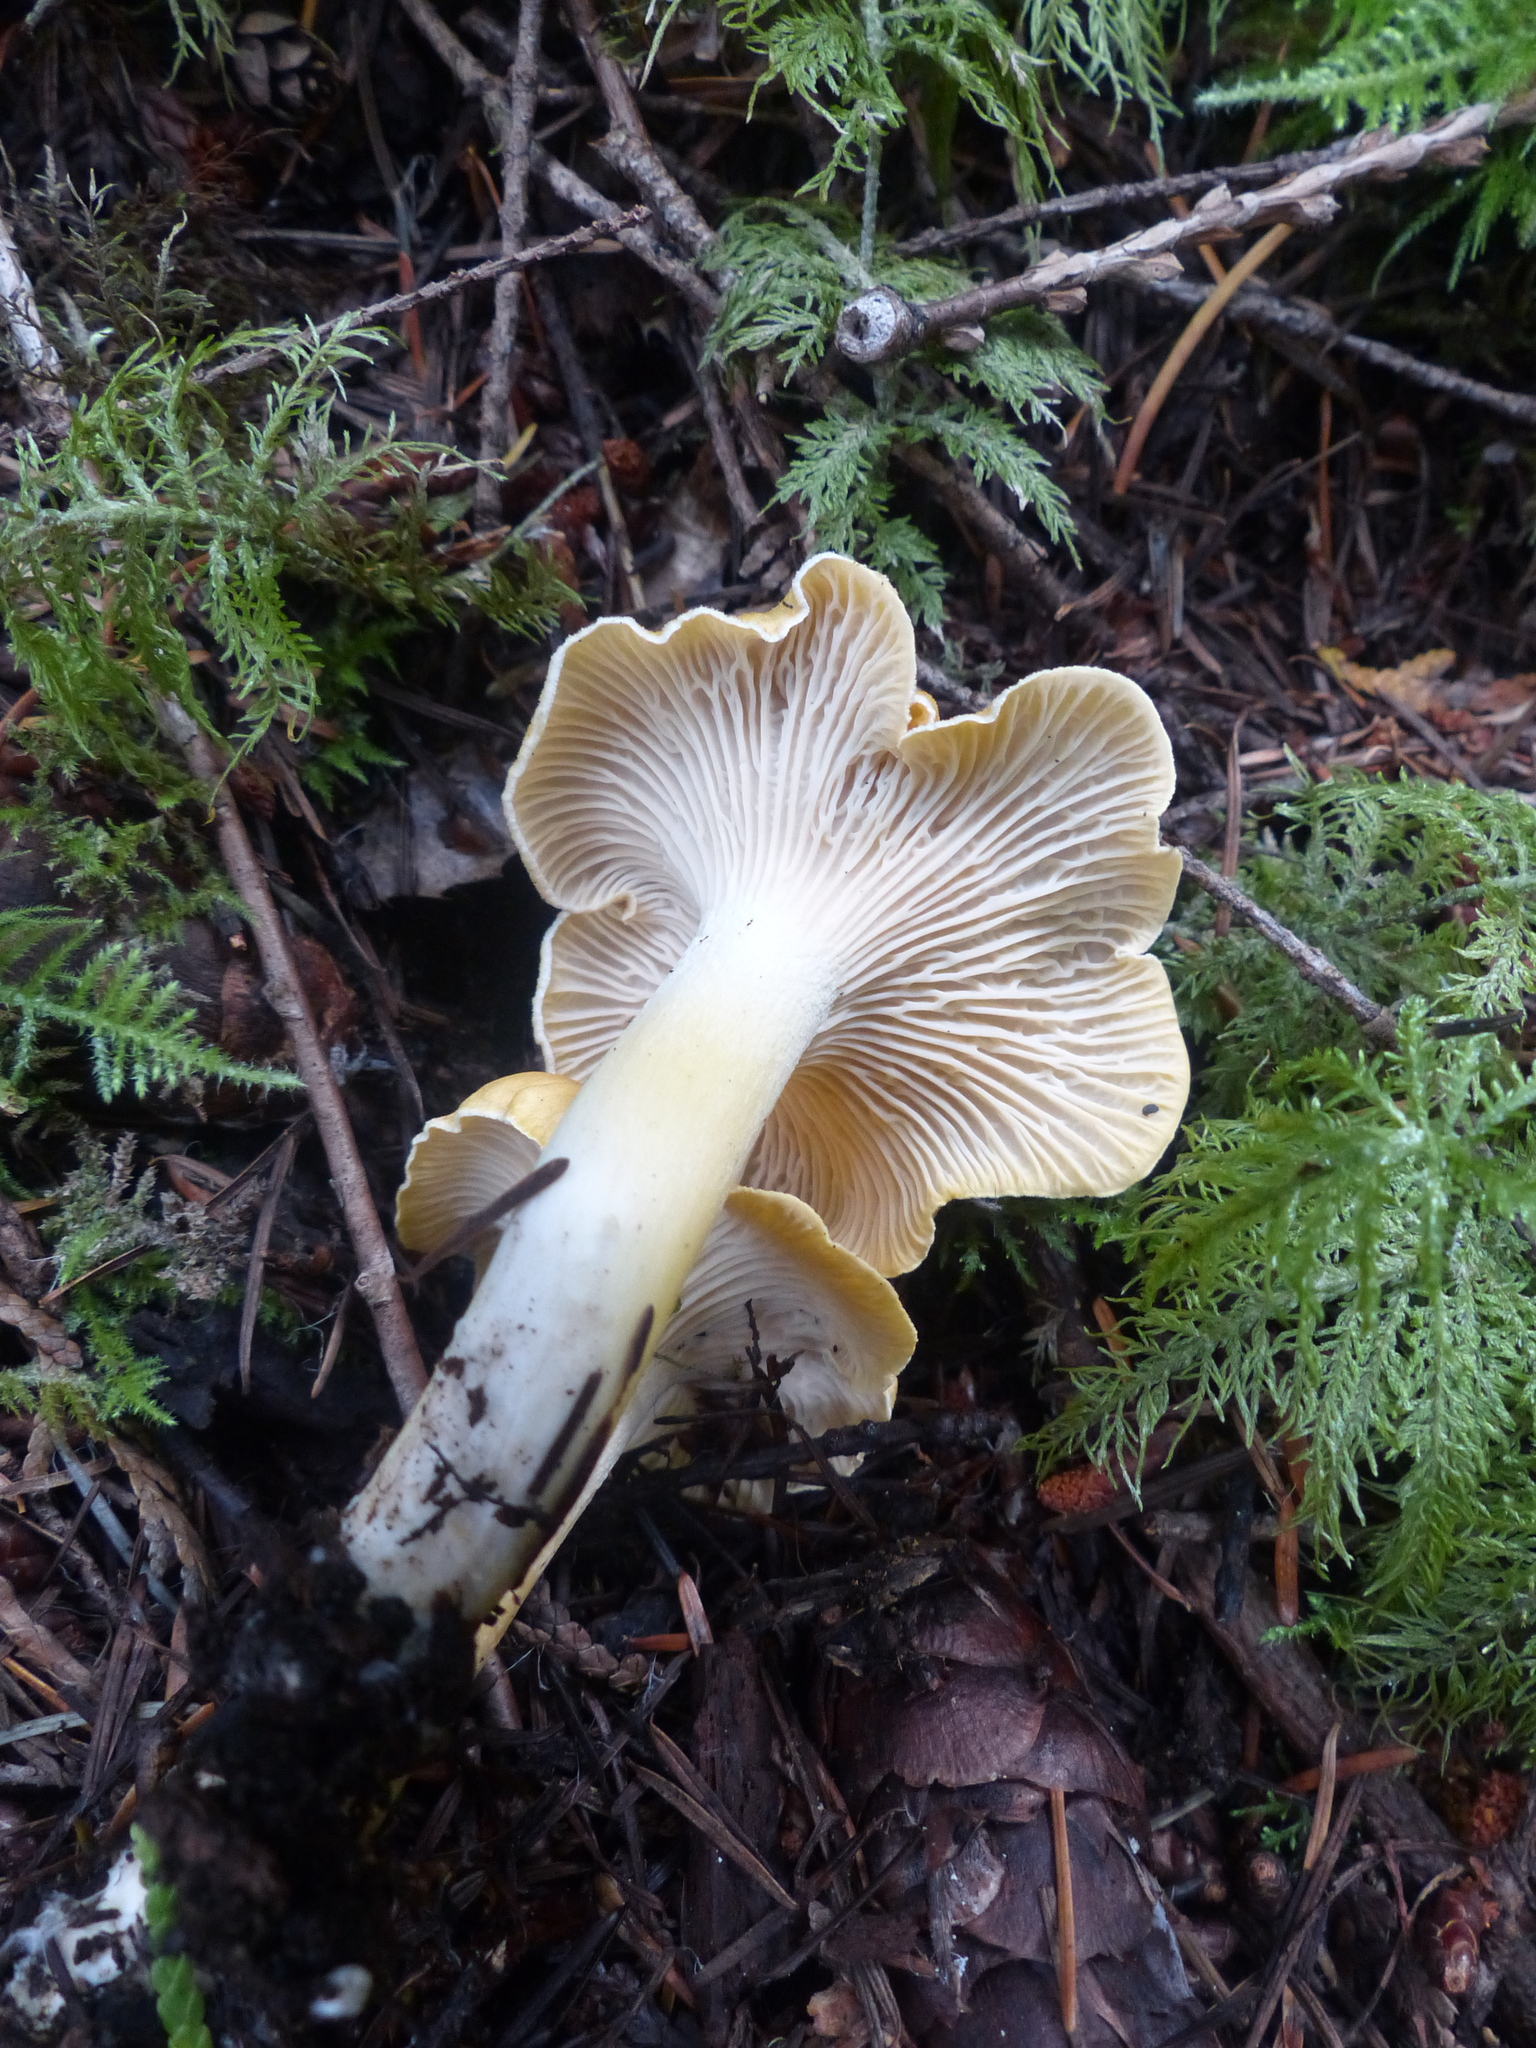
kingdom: Fungi
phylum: Basidiomycota
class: Agaricomycetes
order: Cantharellales
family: Hydnaceae
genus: Cantharellus
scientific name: Cantharellus formosus
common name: Pacific golden chanterelle
